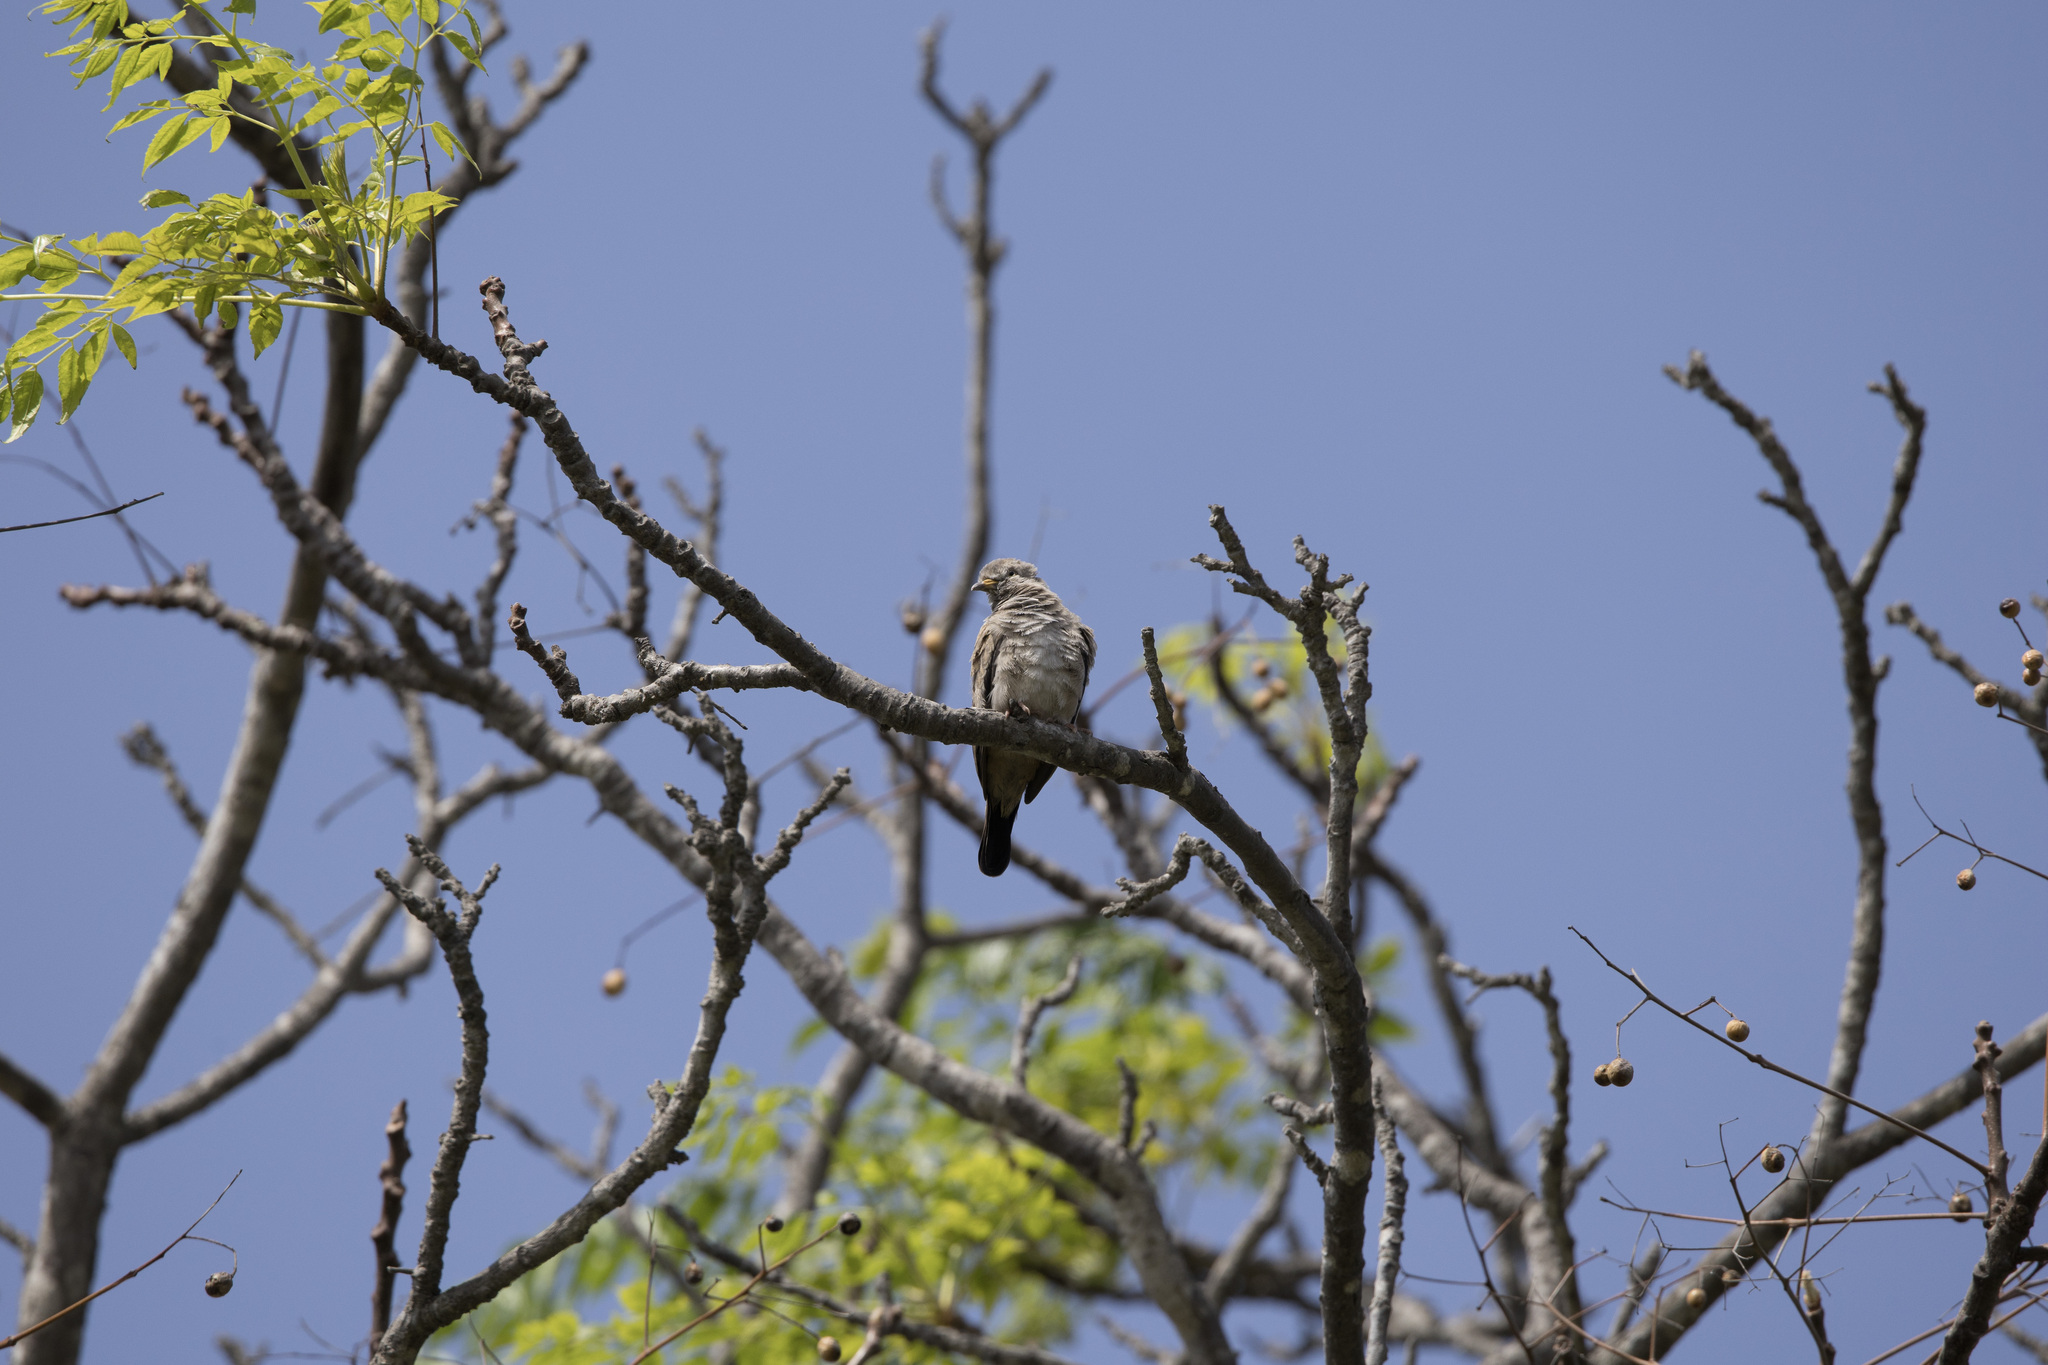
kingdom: Animalia
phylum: Chordata
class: Aves
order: Columbiformes
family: Columbidae
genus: Columbina
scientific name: Columbina cruziana
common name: Croaking ground dove
